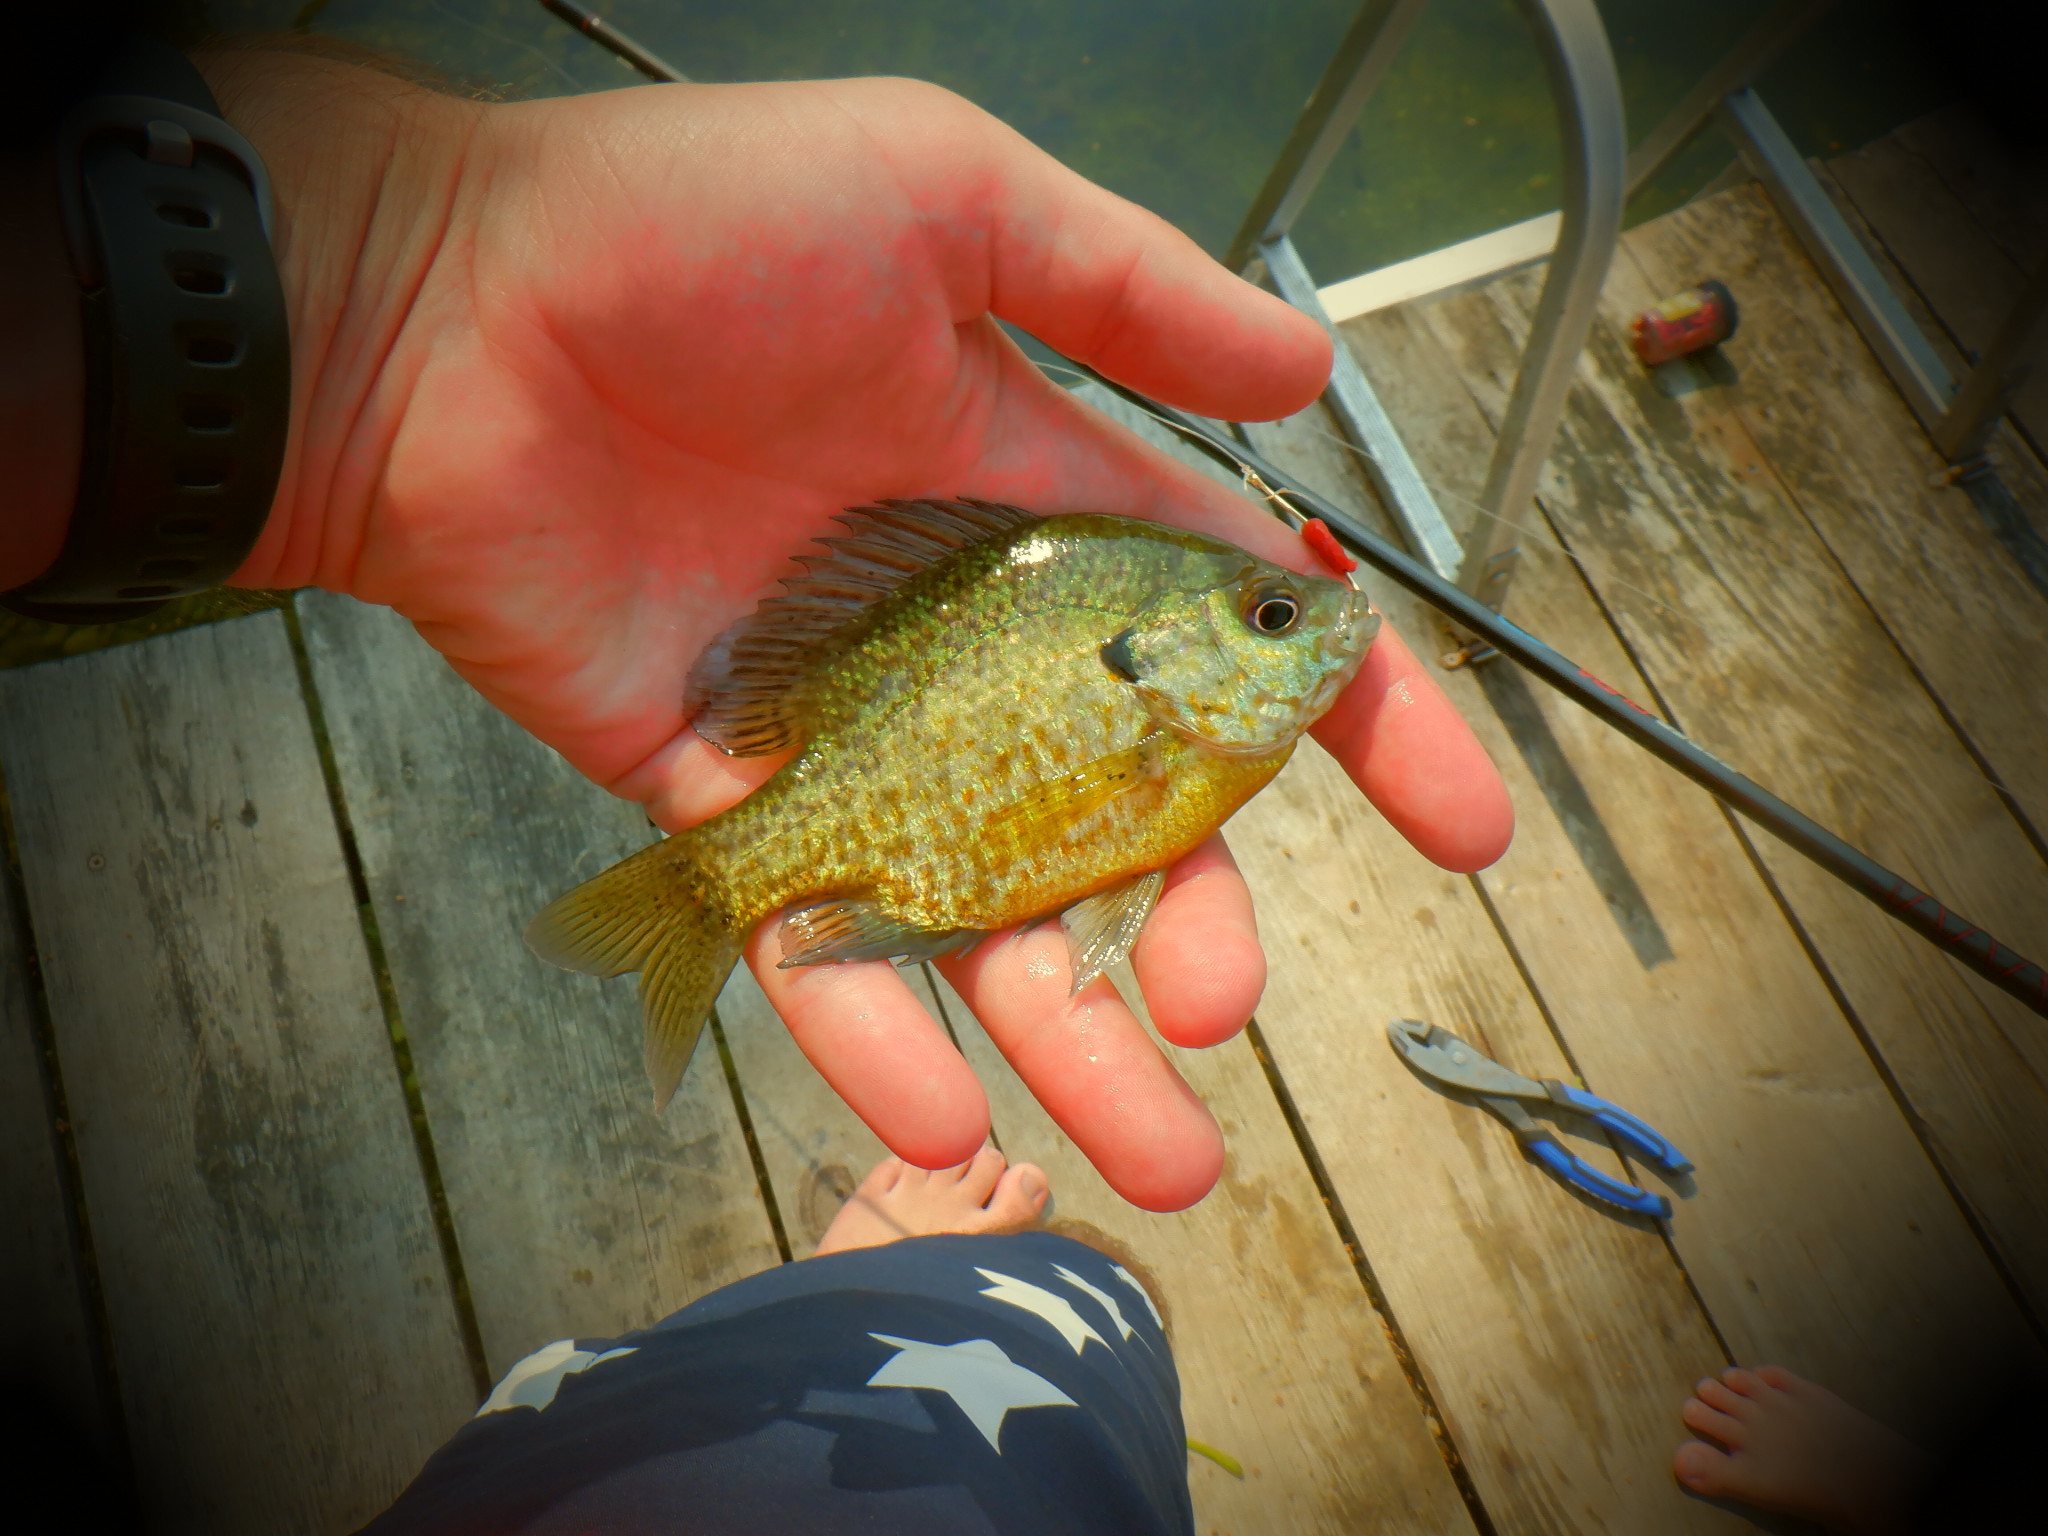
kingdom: Animalia
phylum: Chordata
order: Perciformes
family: Centrarchidae
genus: Lepomis
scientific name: Lepomis
